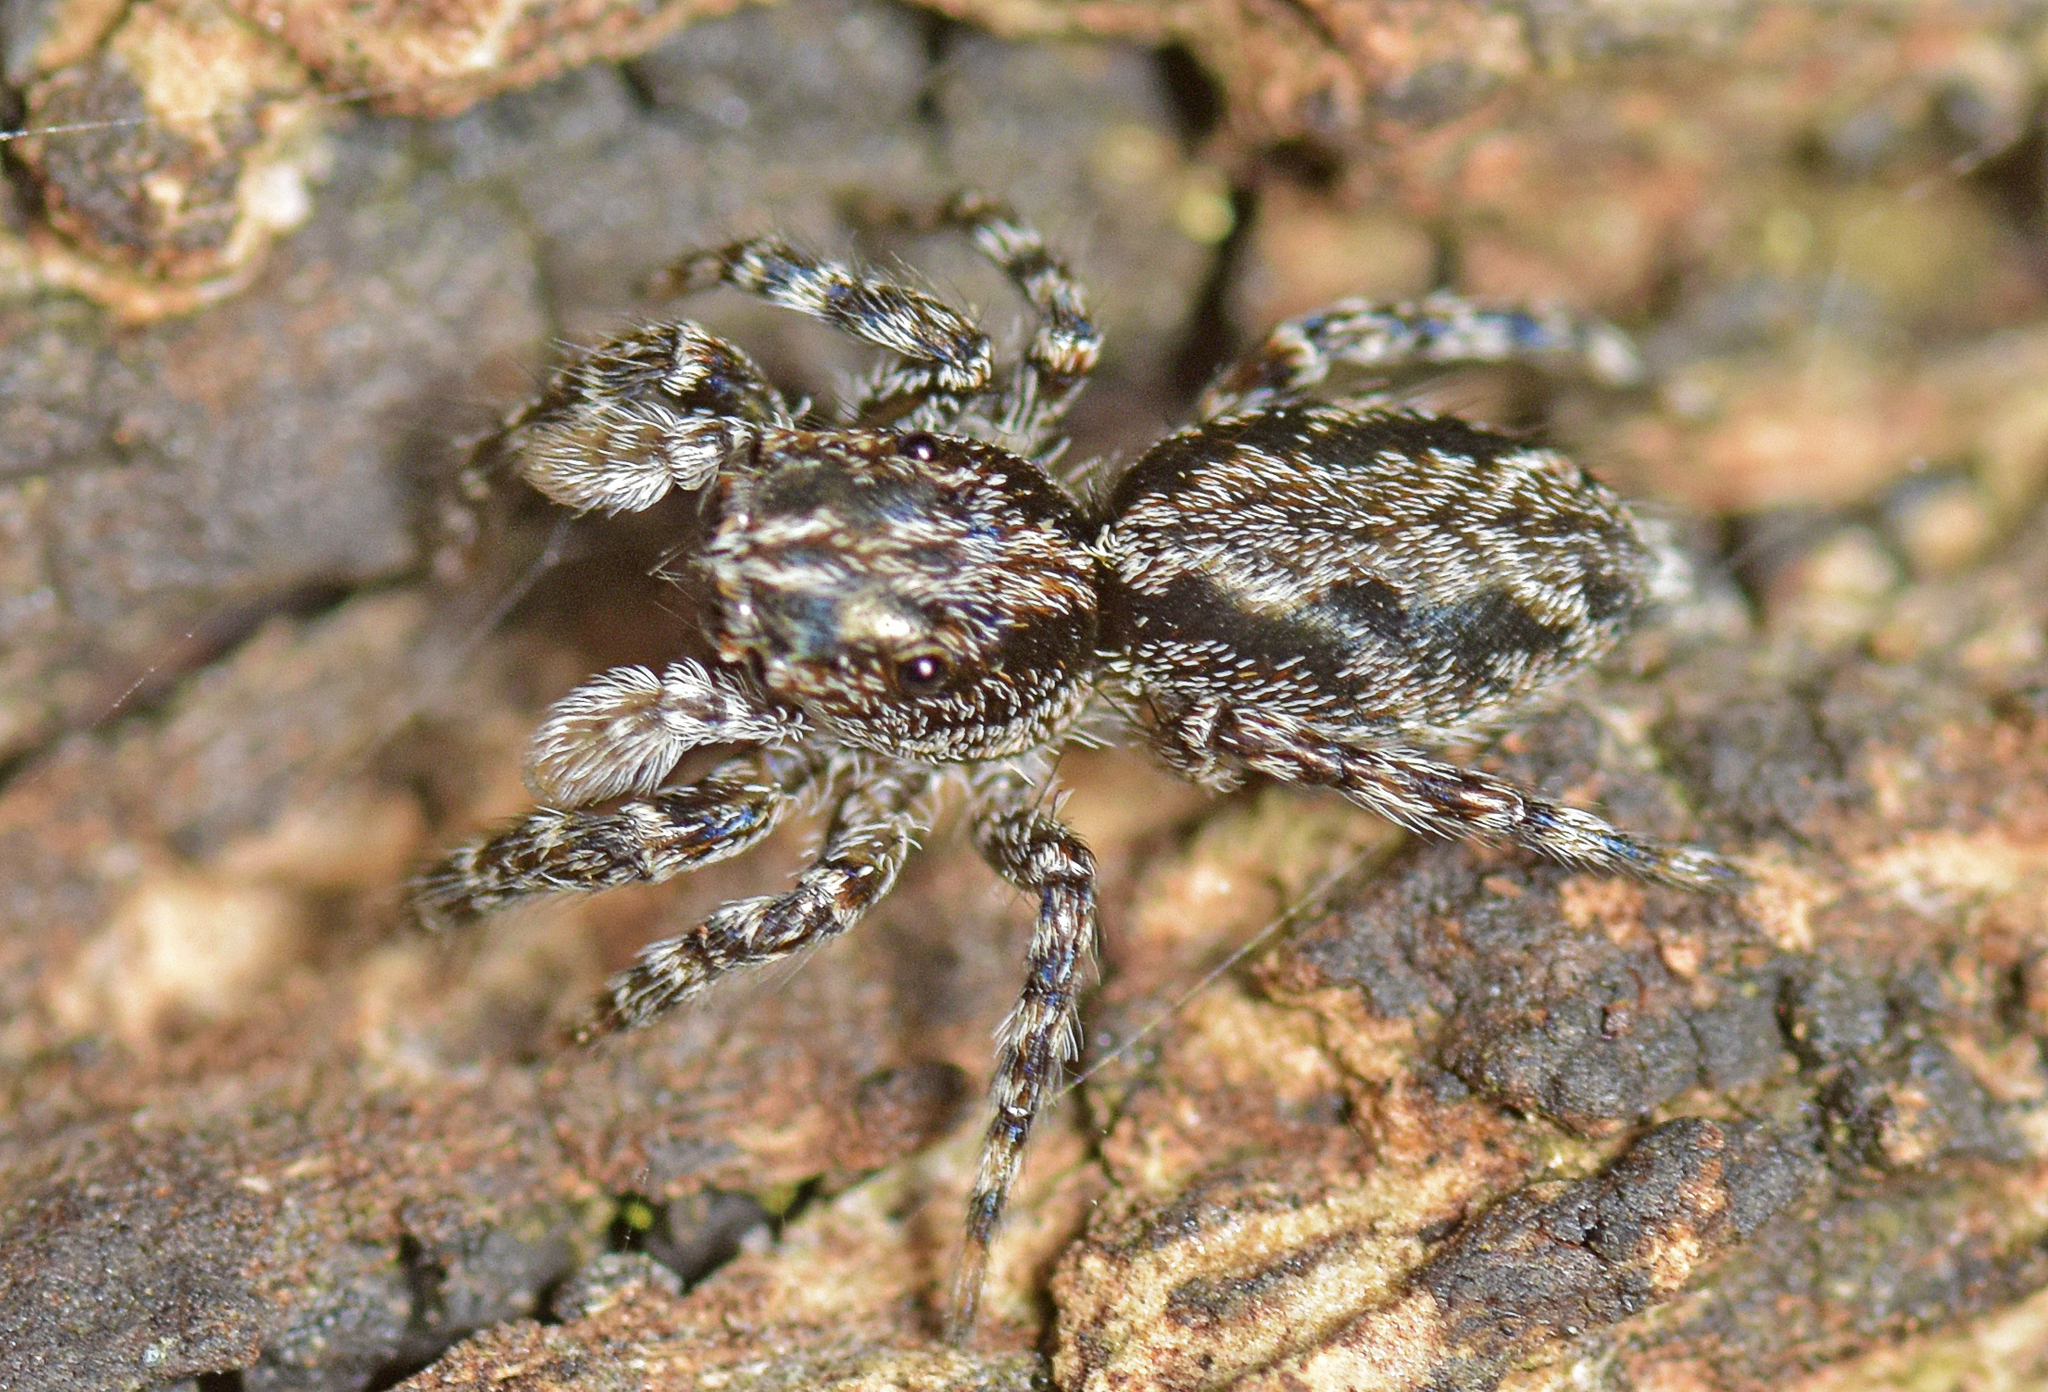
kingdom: Animalia
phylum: Arthropoda
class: Arachnida
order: Araneae
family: Salticidae
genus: Clynotis
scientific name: Clynotis severus
